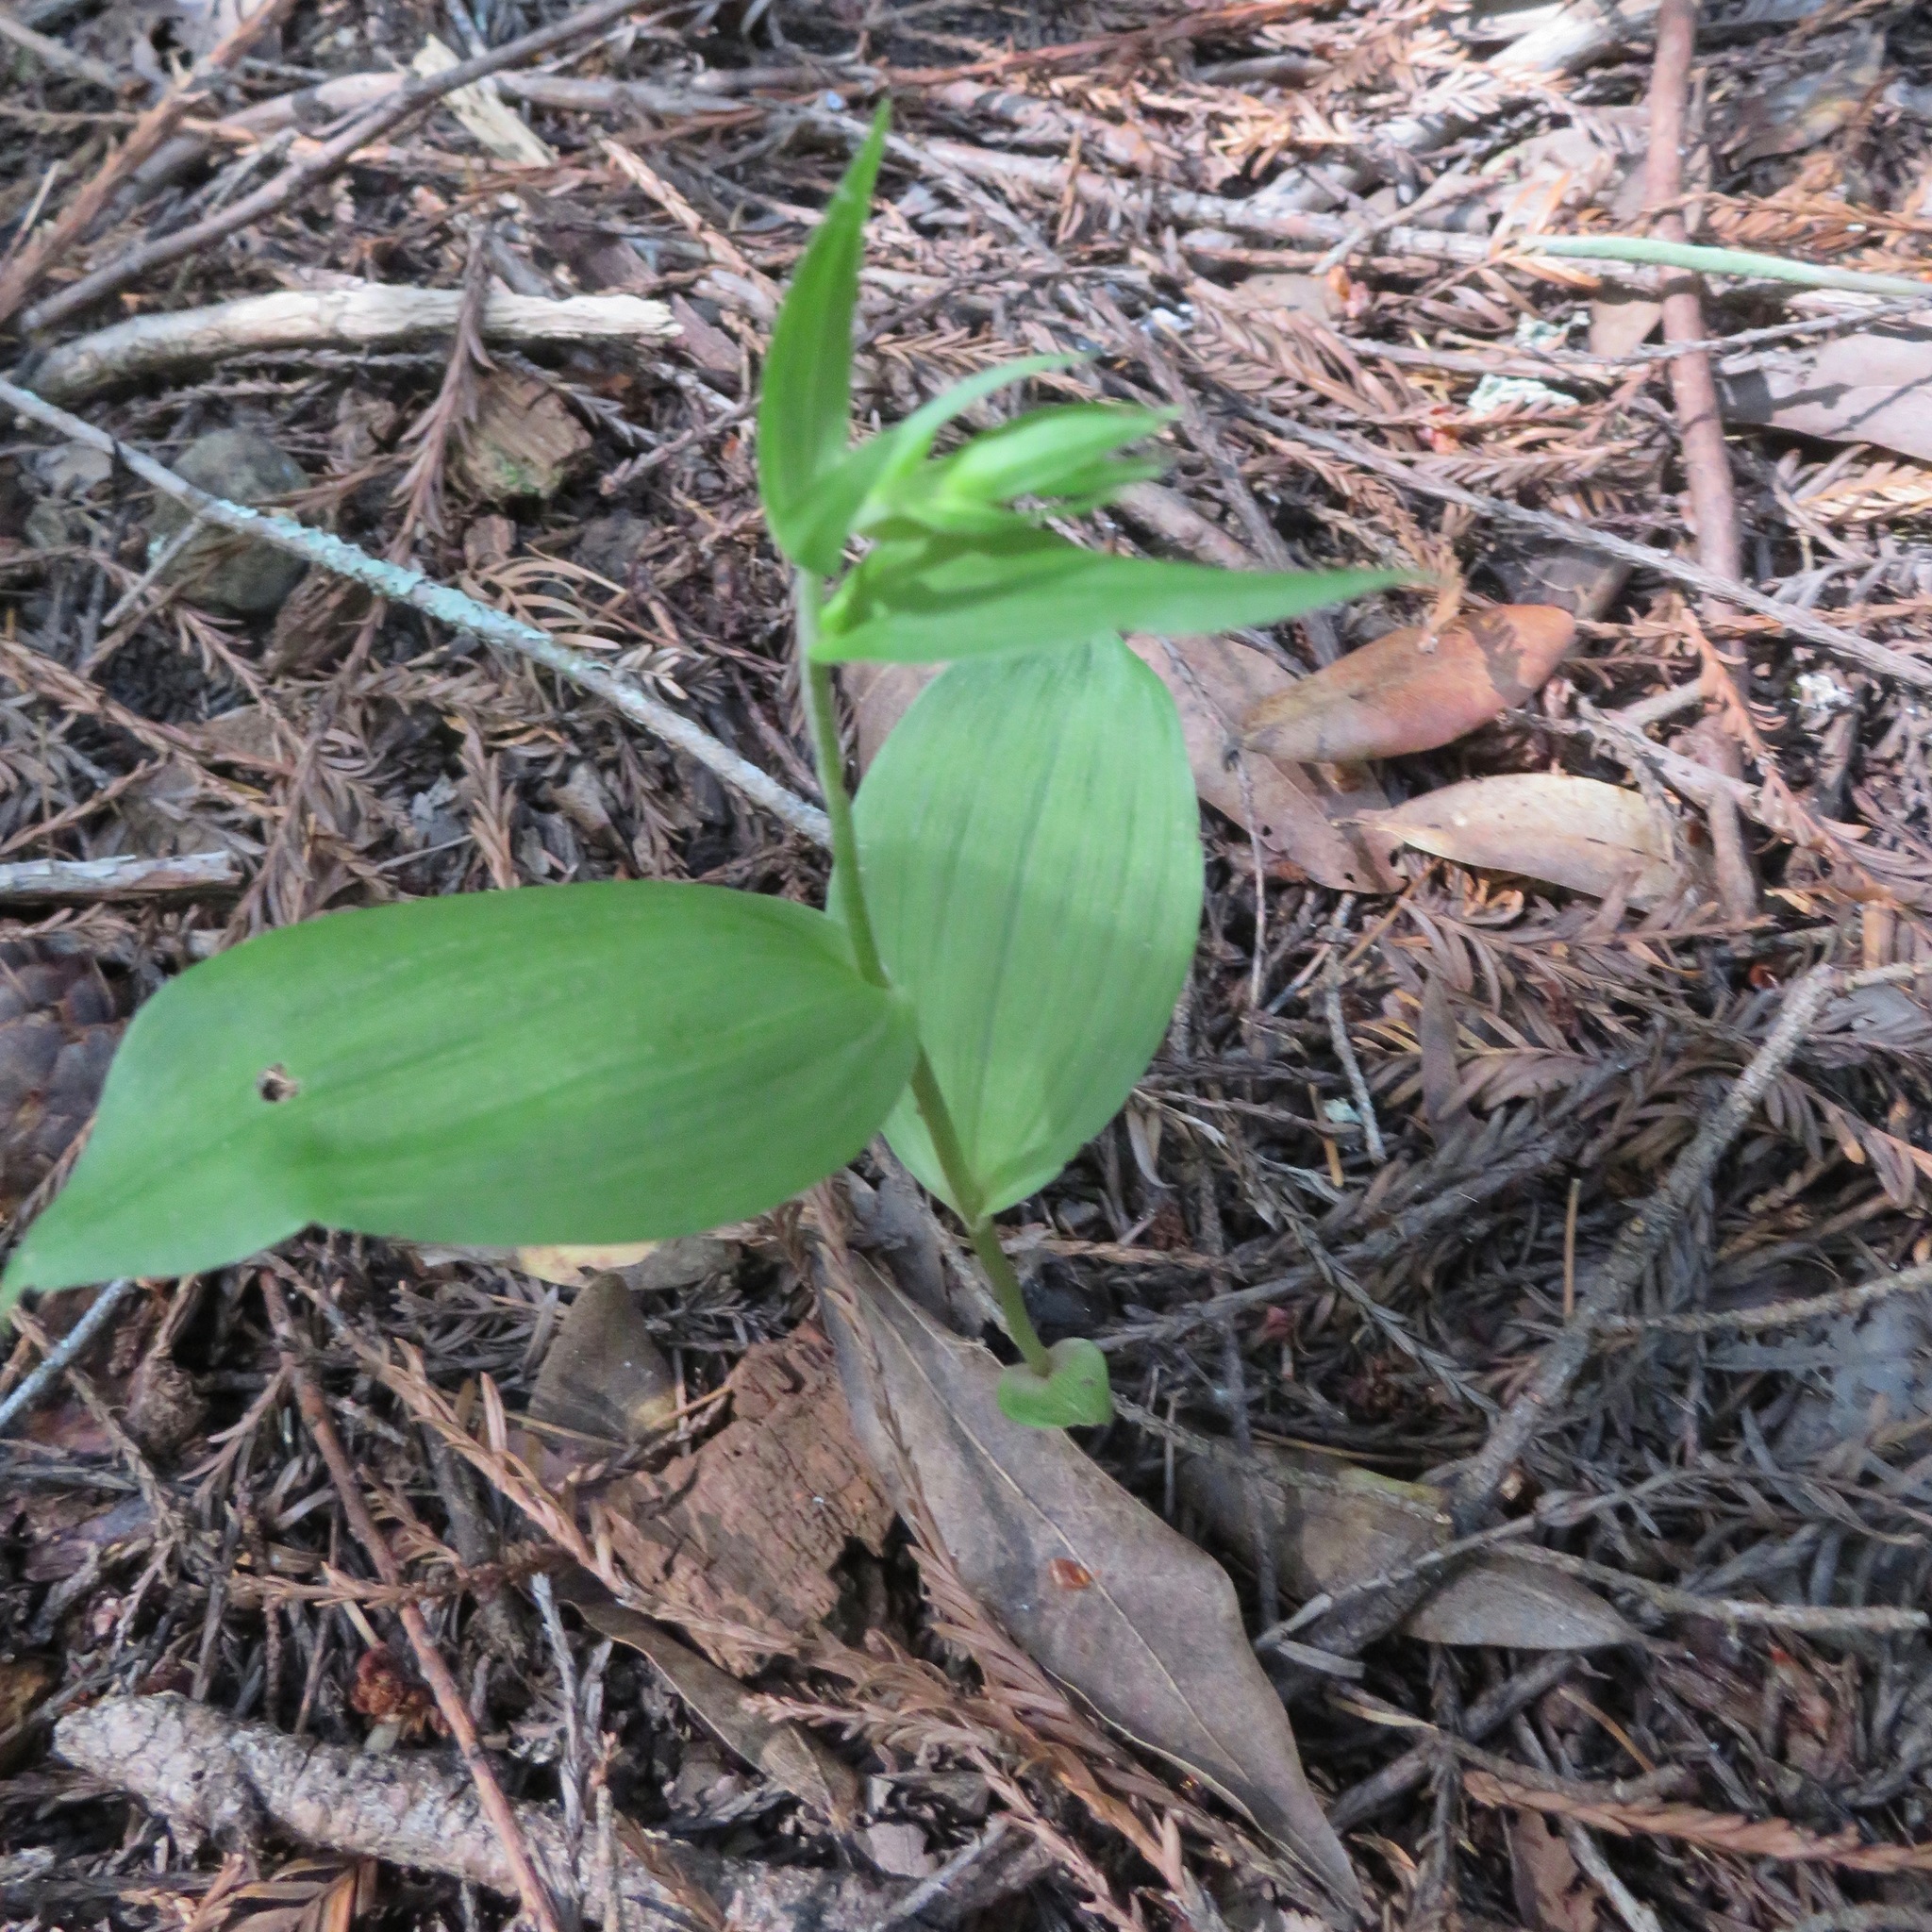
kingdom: Plantae
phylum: Tracheophyta
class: Liliopsida
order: Asparagales
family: Orchidaceae
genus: Epipactis
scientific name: Epipactis helleborine
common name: Broad-leaved helleborine
